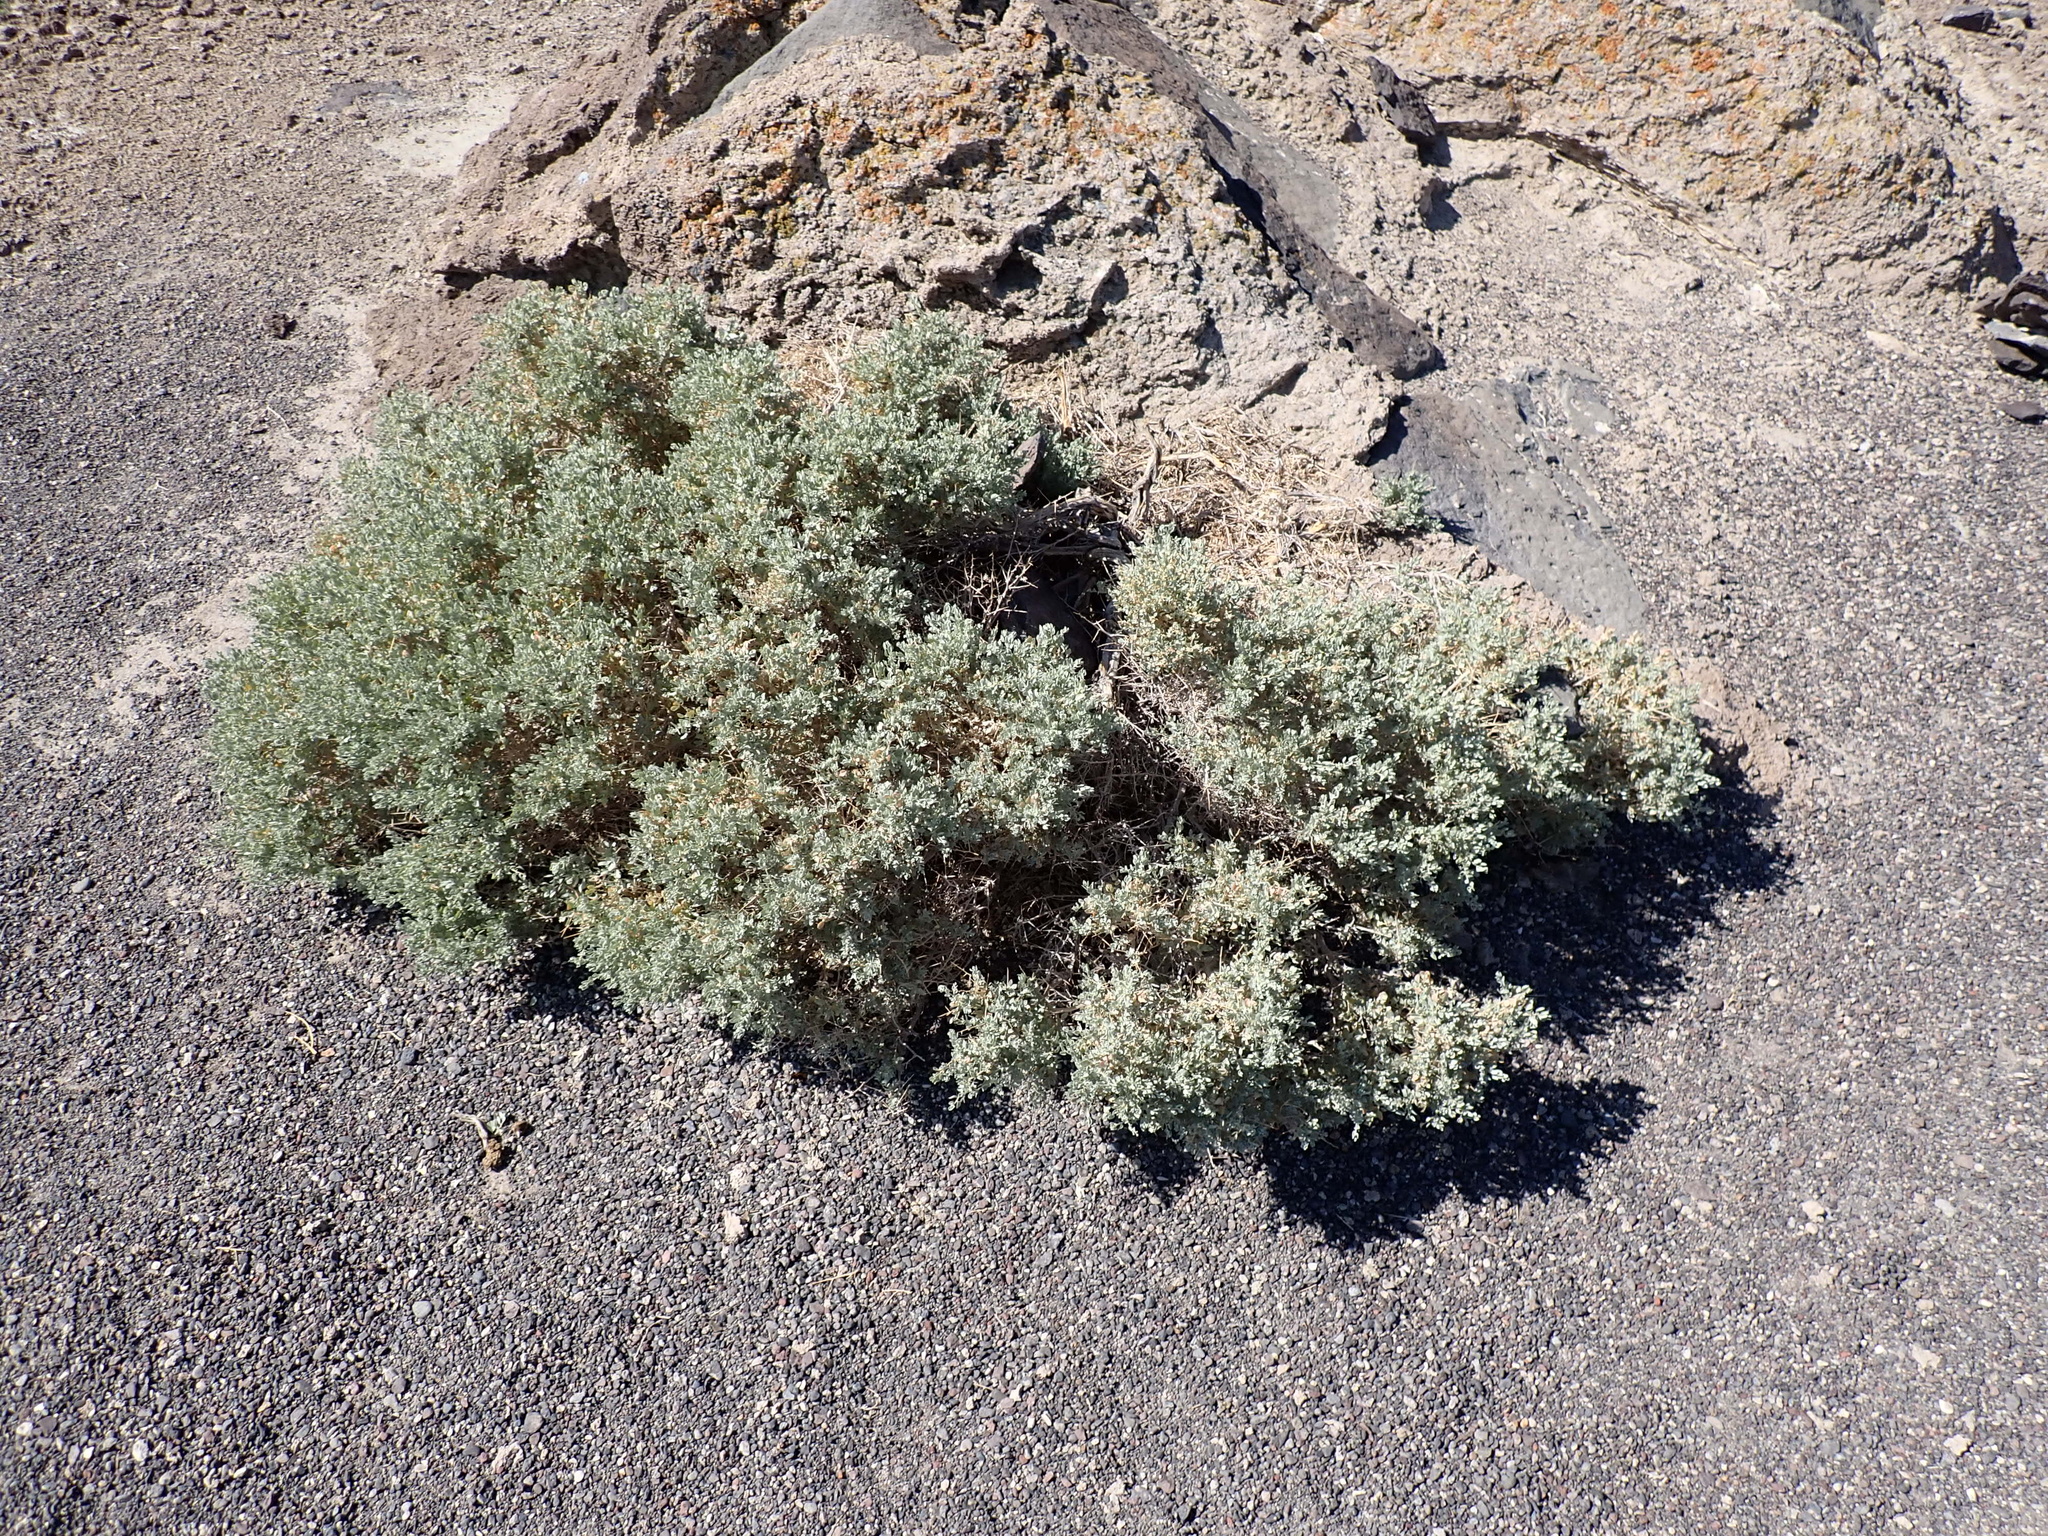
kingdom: Plantae
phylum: Tracheophyta
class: Magnoliopsida
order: Caryophyllales
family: Amaranthaceae
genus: Atriplex
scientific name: Atriplex confertifolia
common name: Shadscale
